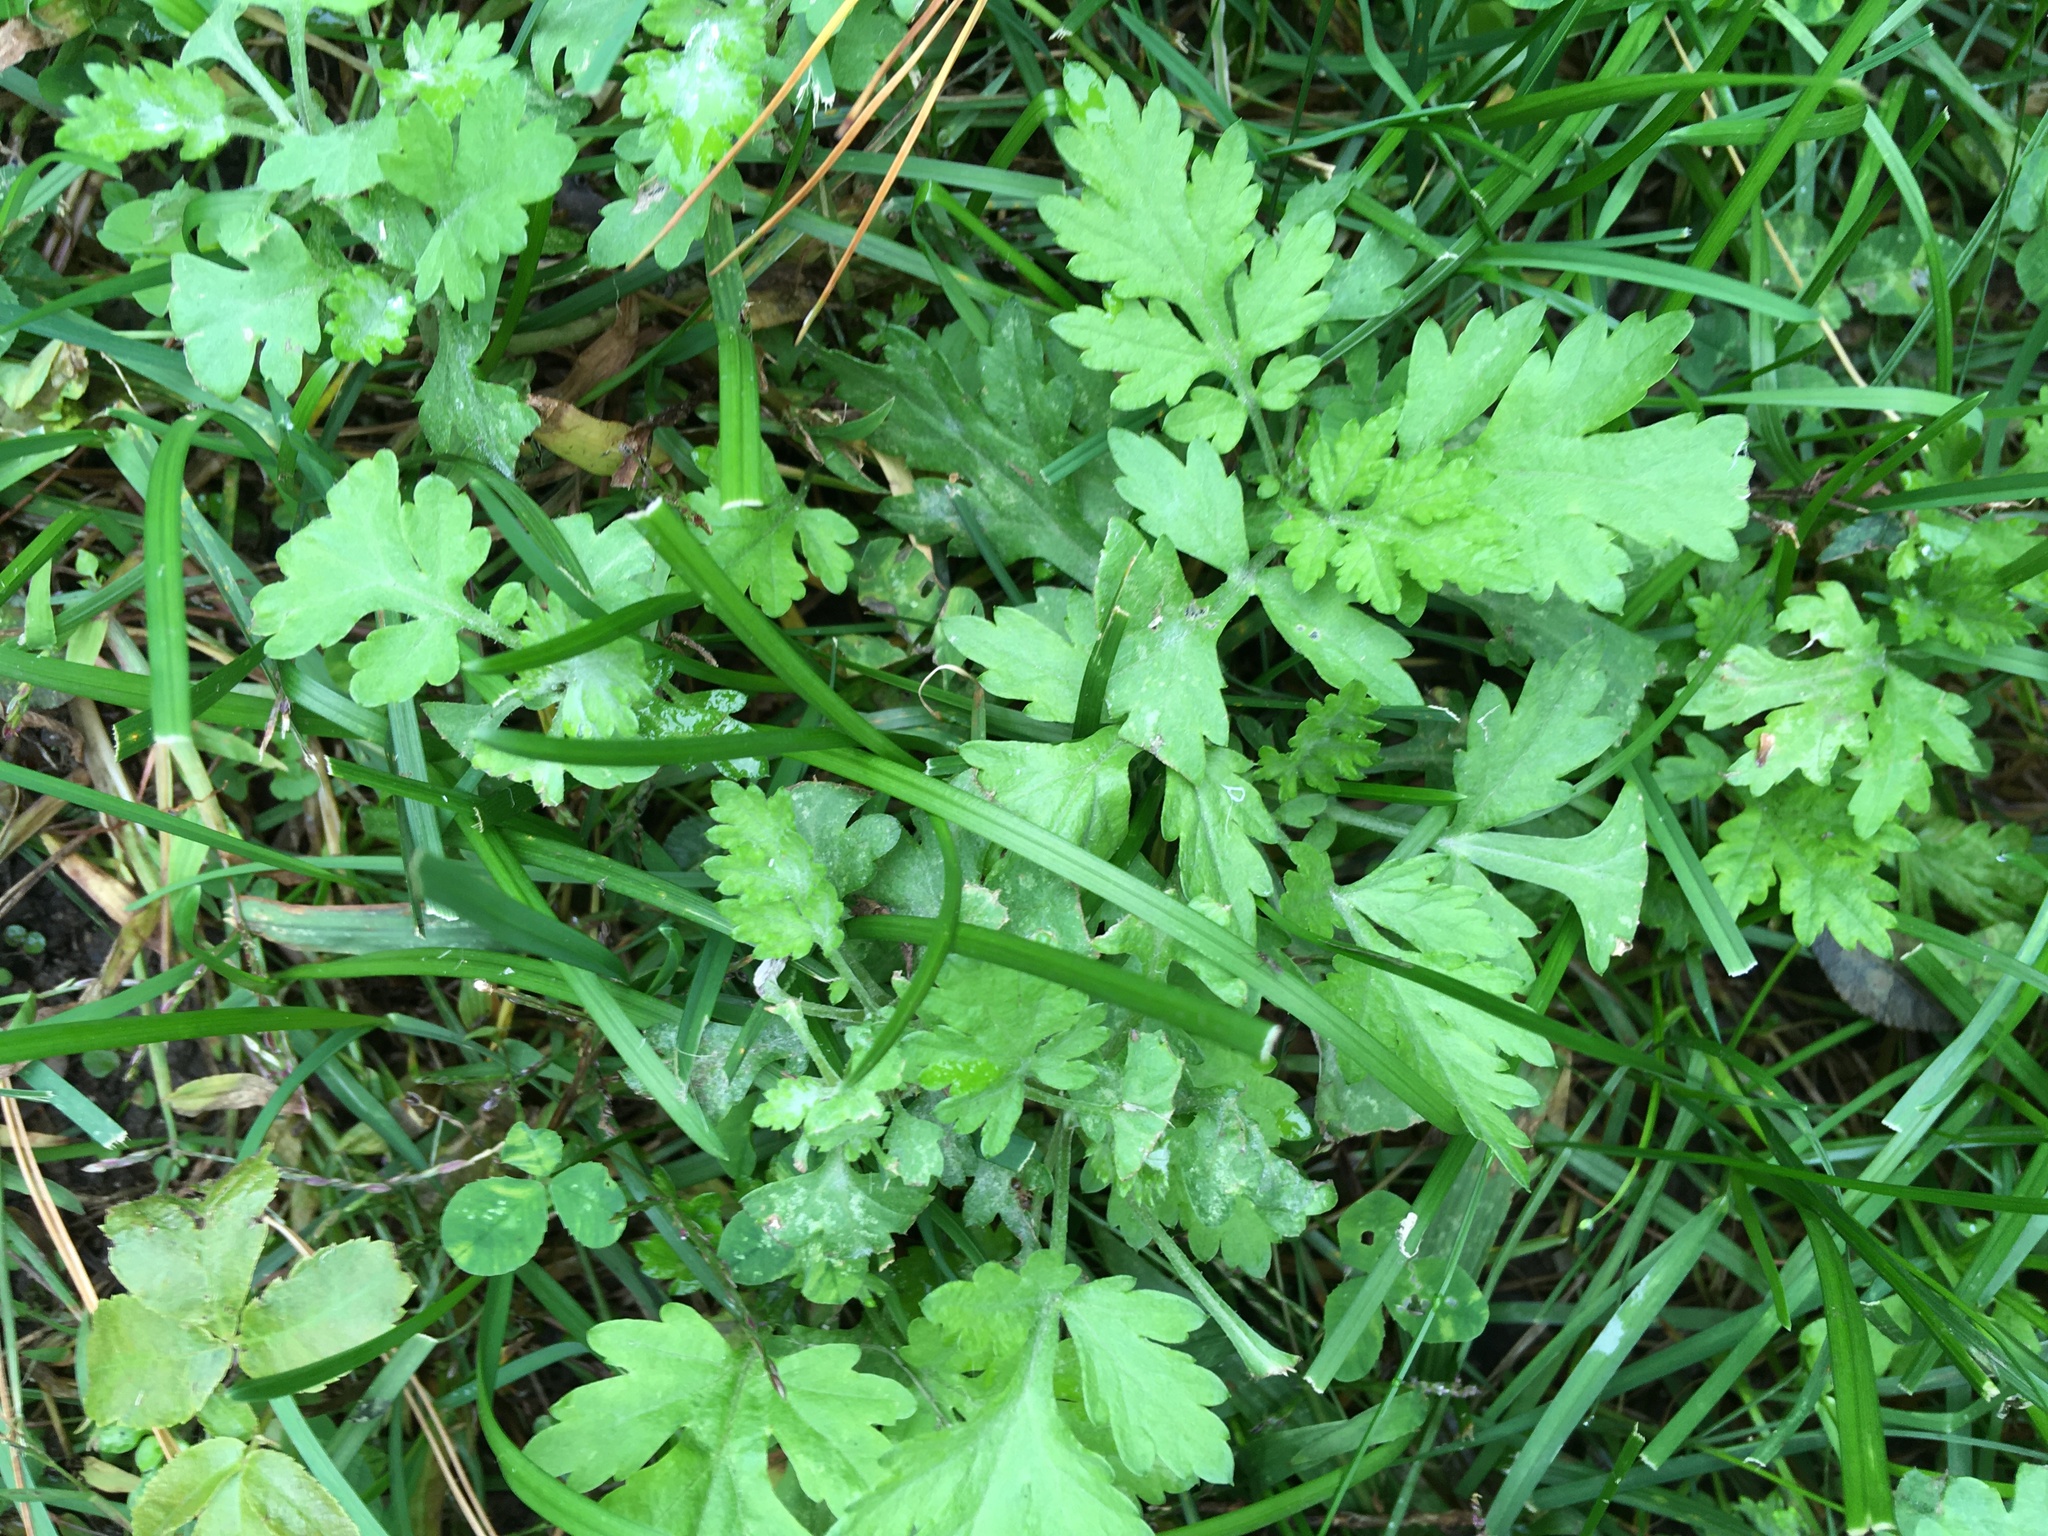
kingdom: Plantae
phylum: Tracheophyta
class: Magnoliopsida
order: Asterales
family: Asteraceae
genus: Artemisia
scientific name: Artemisia vulgaris
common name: Mugwort
